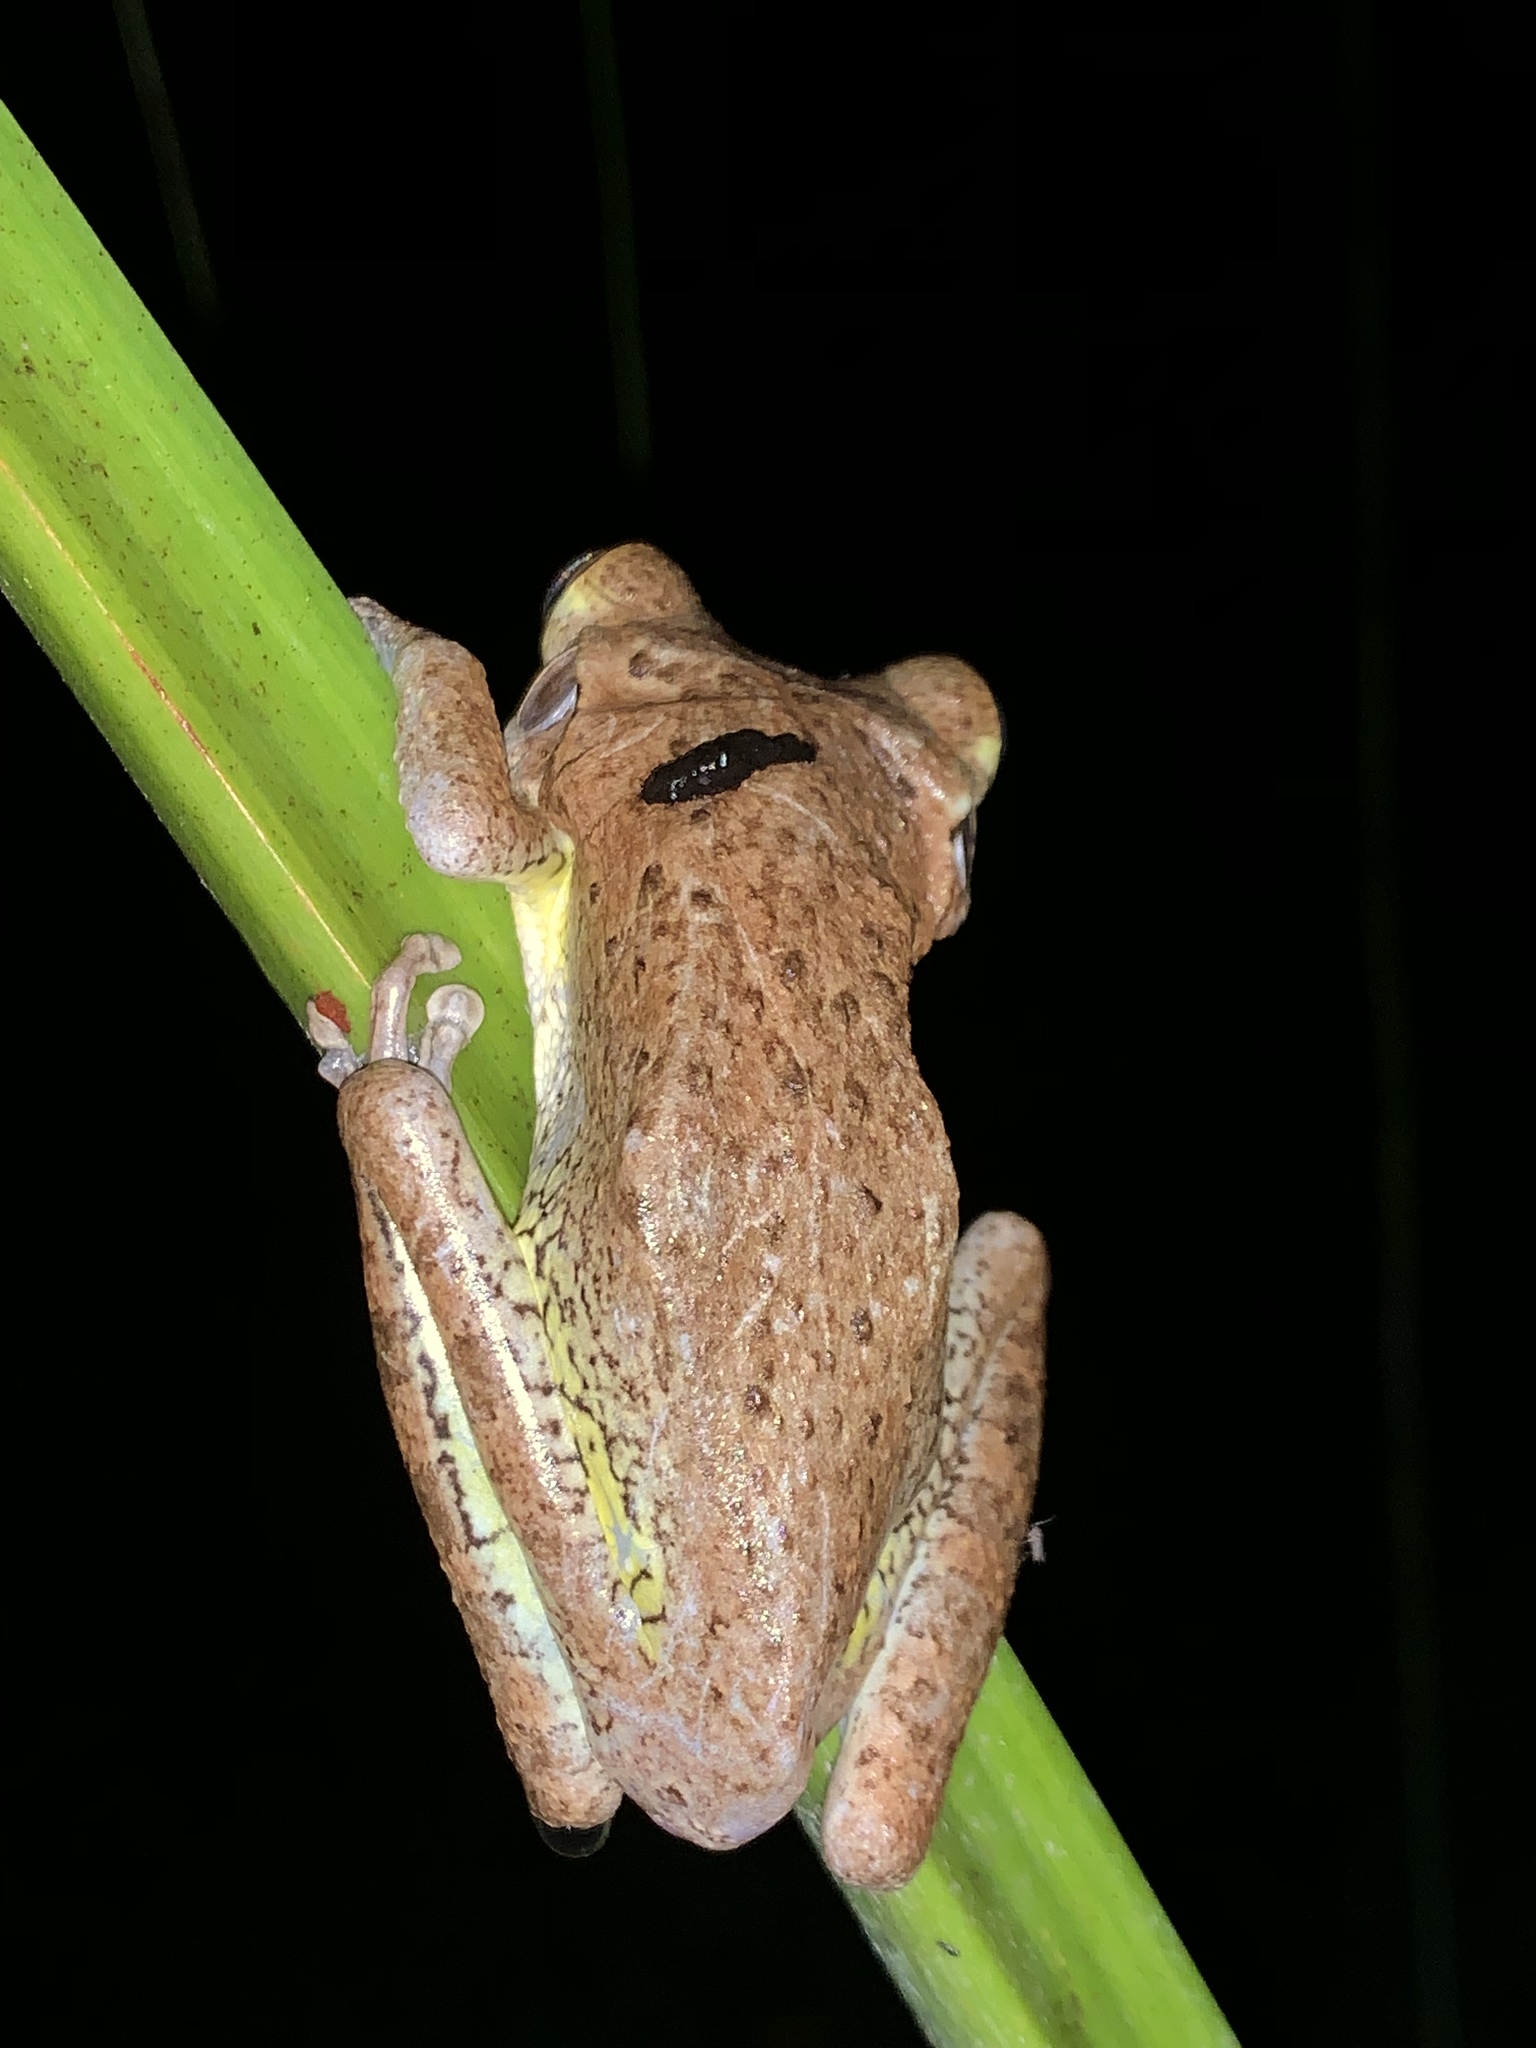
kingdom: Animalia
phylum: Chordata
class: Amphibia
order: Anura
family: Hylidae
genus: Osteopilus
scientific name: Osteopilus septentrionalis
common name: Cuban treefrog
